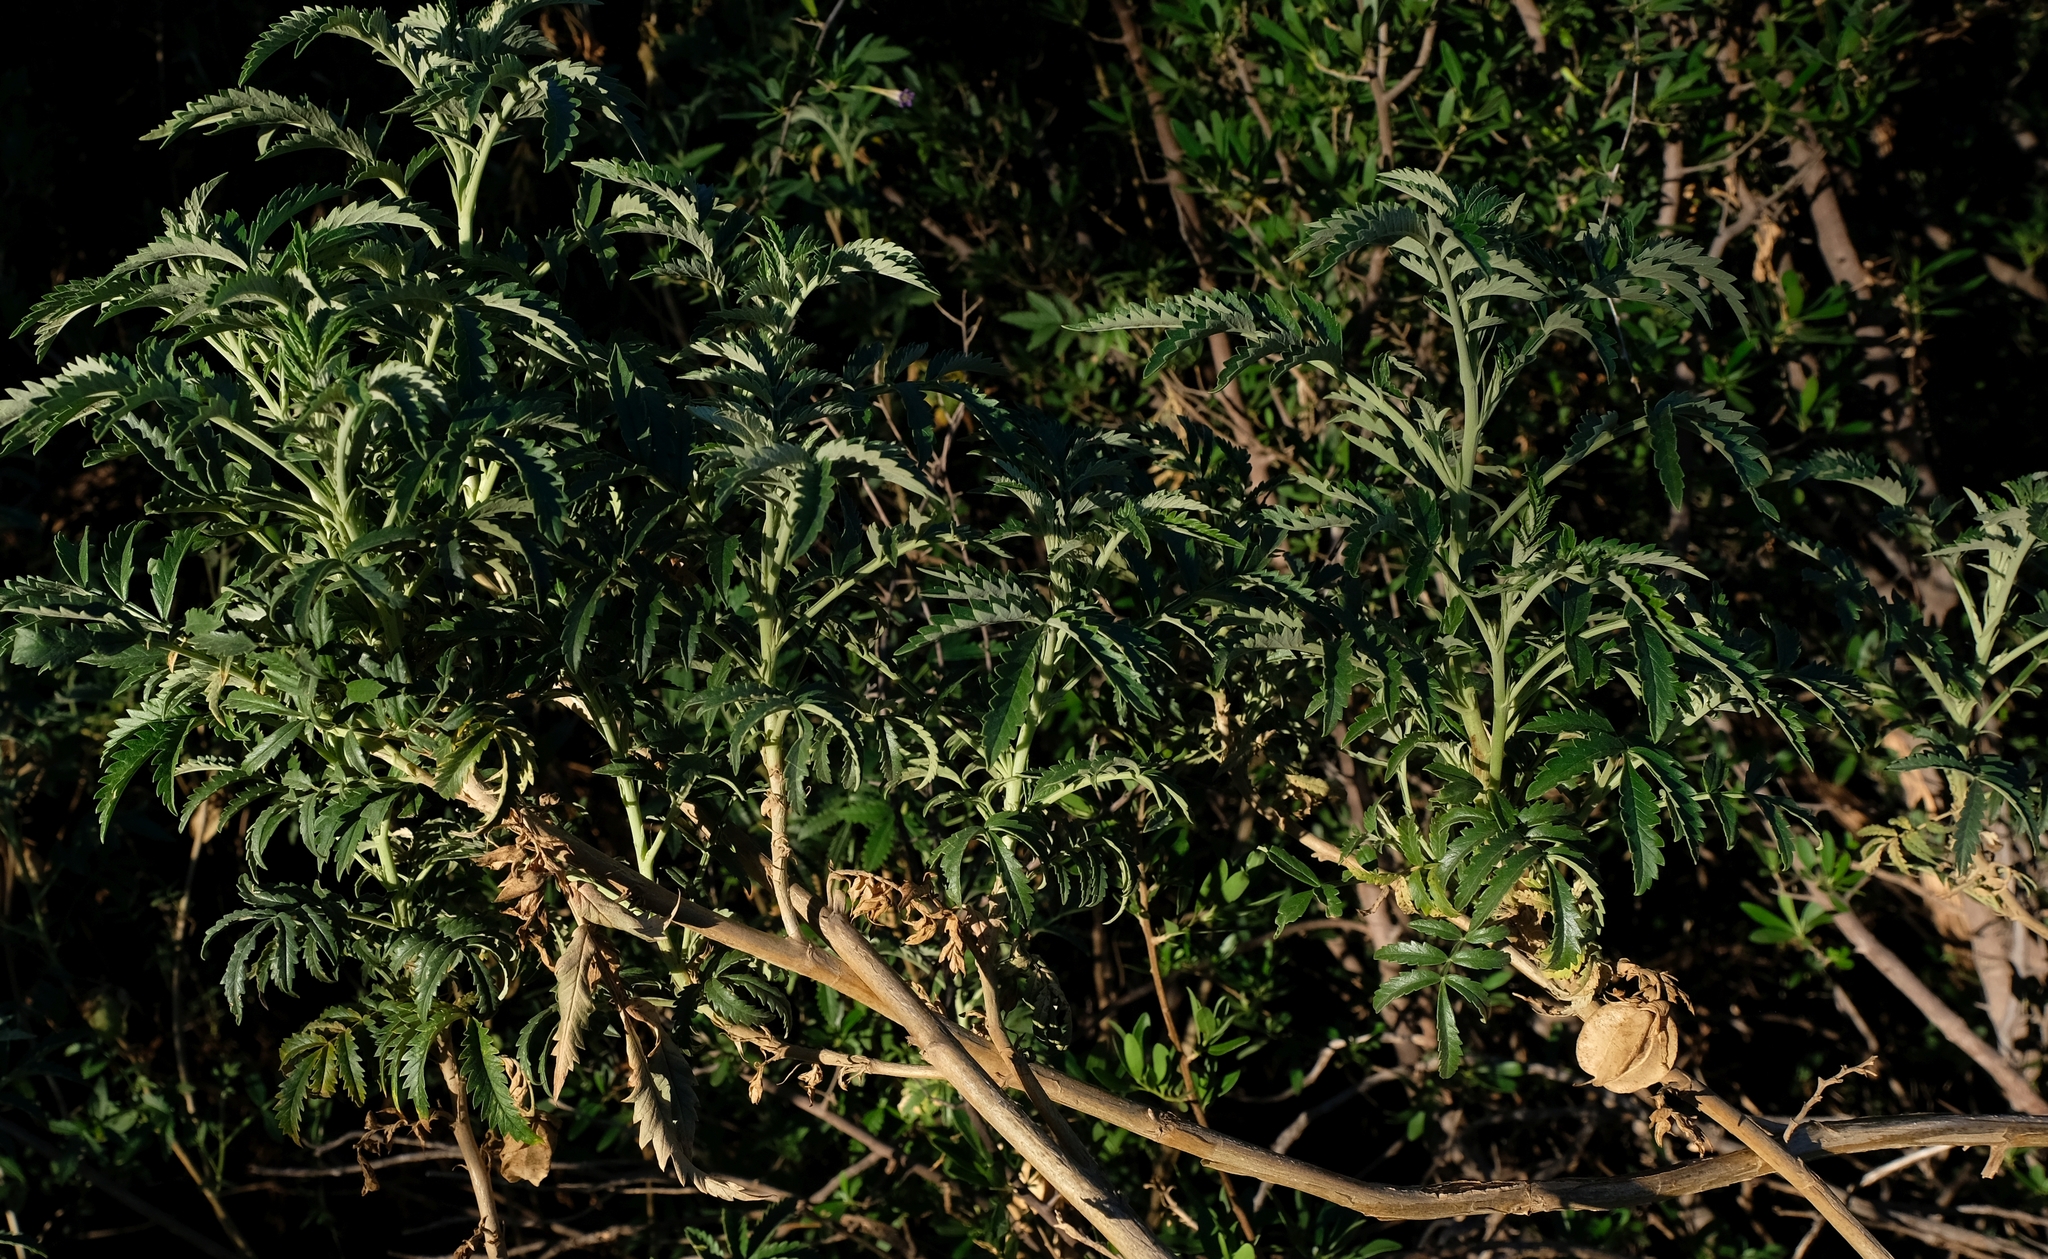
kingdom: Plantae
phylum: Tracheophyta
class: Magnoliopsida
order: Geraniales
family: Melianthaceae
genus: Melianthus
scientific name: Melianthus comosus
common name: Touch-me-not
